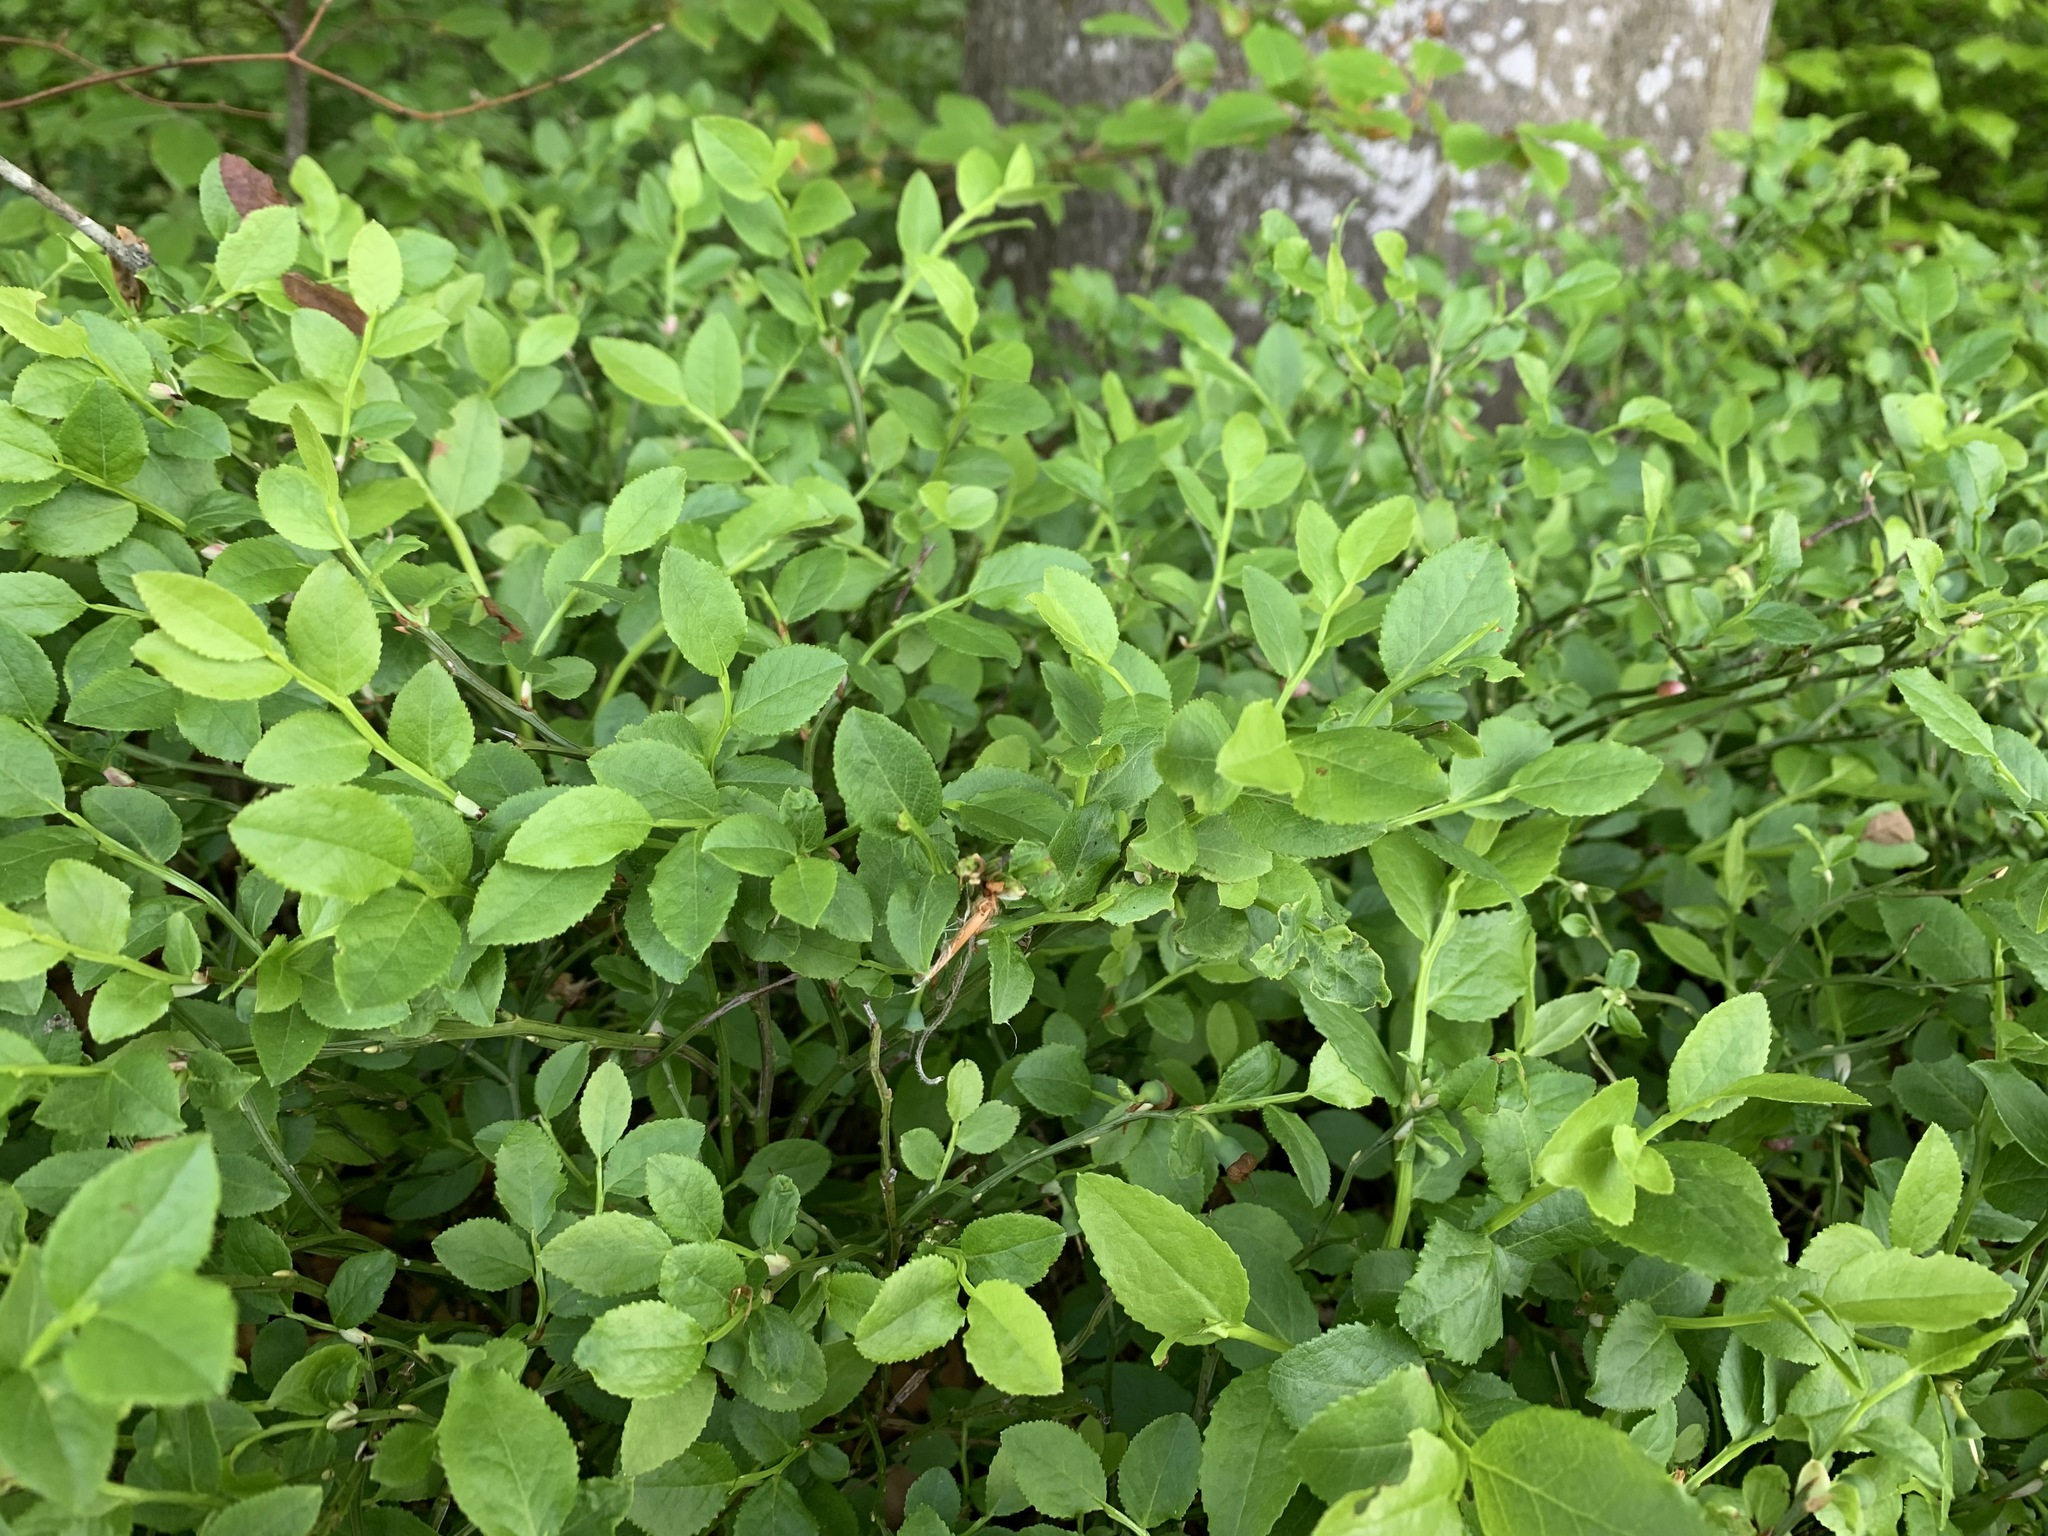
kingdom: Plantae
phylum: Tracheophyta
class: Magnoliopsida
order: Ericales
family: Ericaceae
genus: Vaccinium
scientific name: Vaccinium myrtillus
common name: Bilberry
